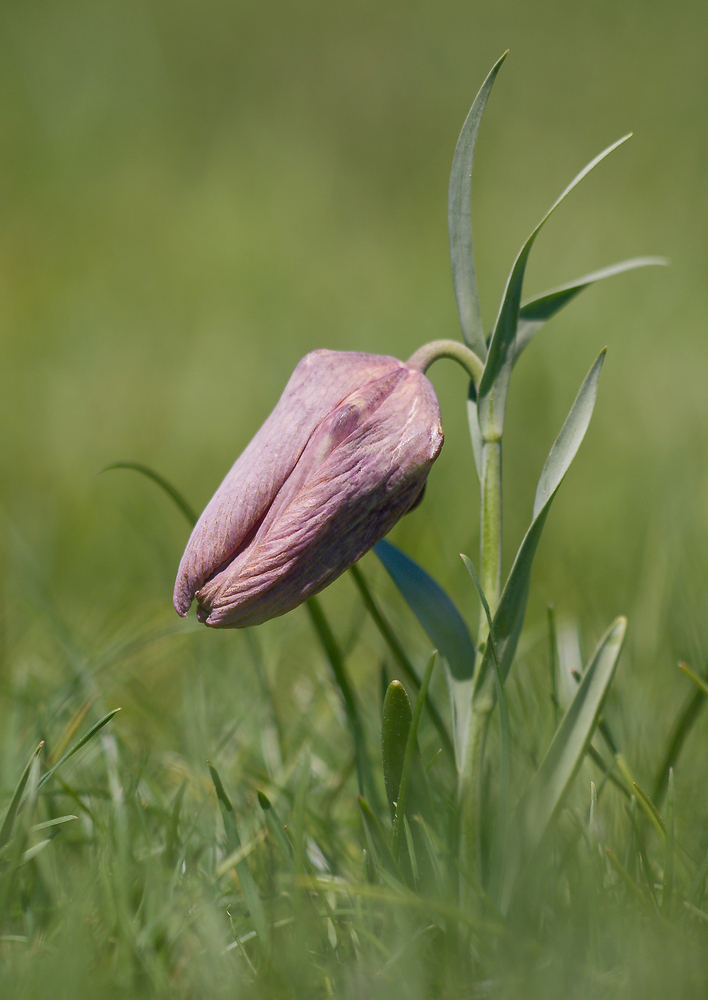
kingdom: Plantae
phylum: Tracheophyta
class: Liliopsida
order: Liliales
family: Liliaceae
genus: Fritillaria
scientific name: Fritillaria tubaeformis
